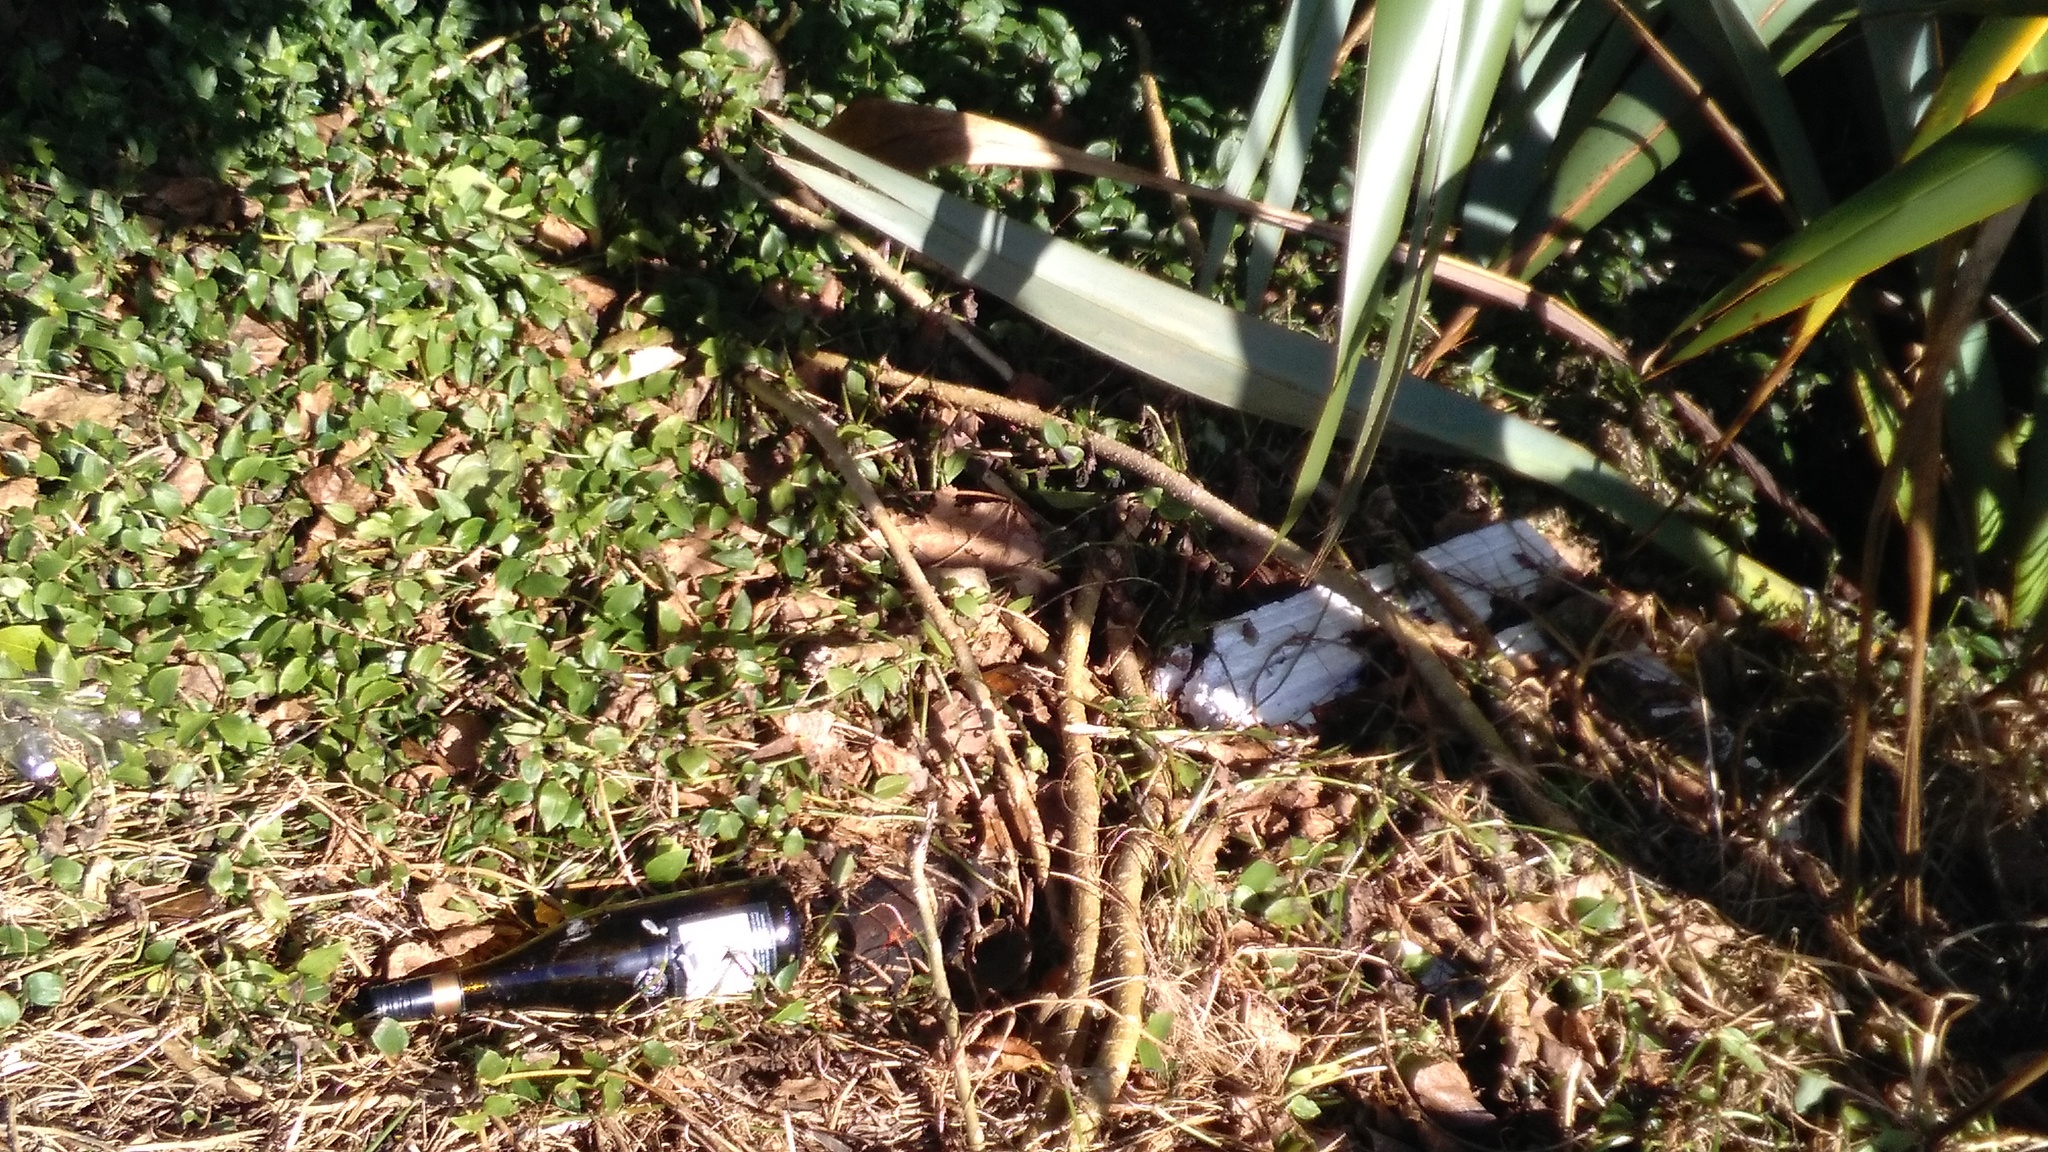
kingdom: Plantae
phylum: Tracheophyta
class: Liliopsida
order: Commelinales
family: Commelinaceae
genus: Tradescantia
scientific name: Tradescantia fluminensis
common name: Wandering-jew
